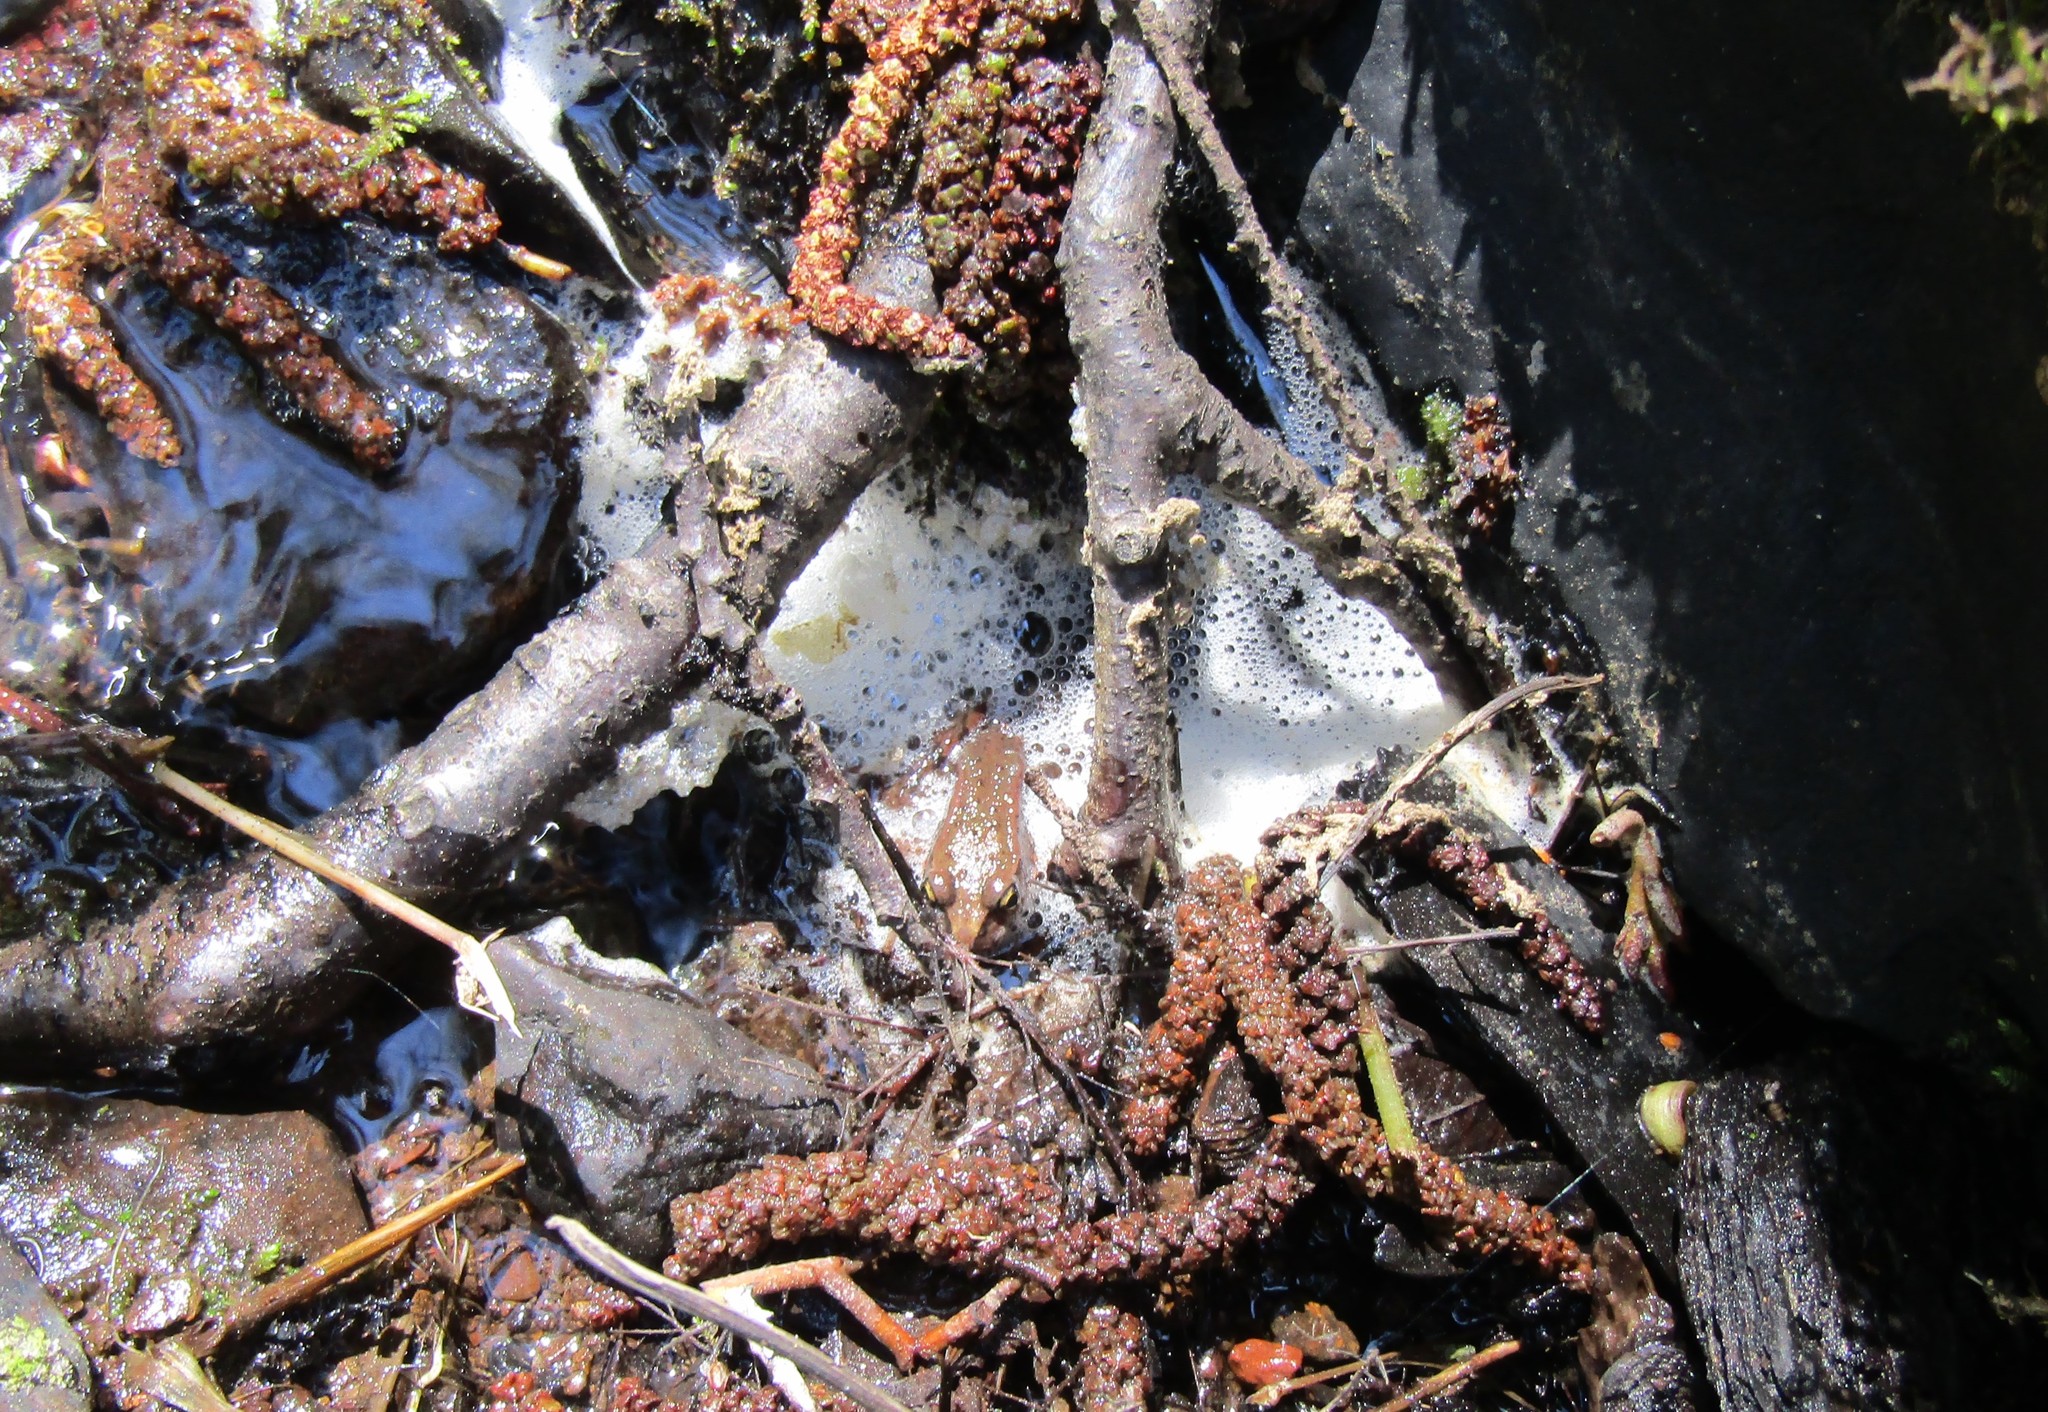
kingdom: Animalia
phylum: Chordata
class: Amphibia
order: Anura
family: Ranidae
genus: Rana
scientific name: Rana aurora
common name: Red-legged frog
